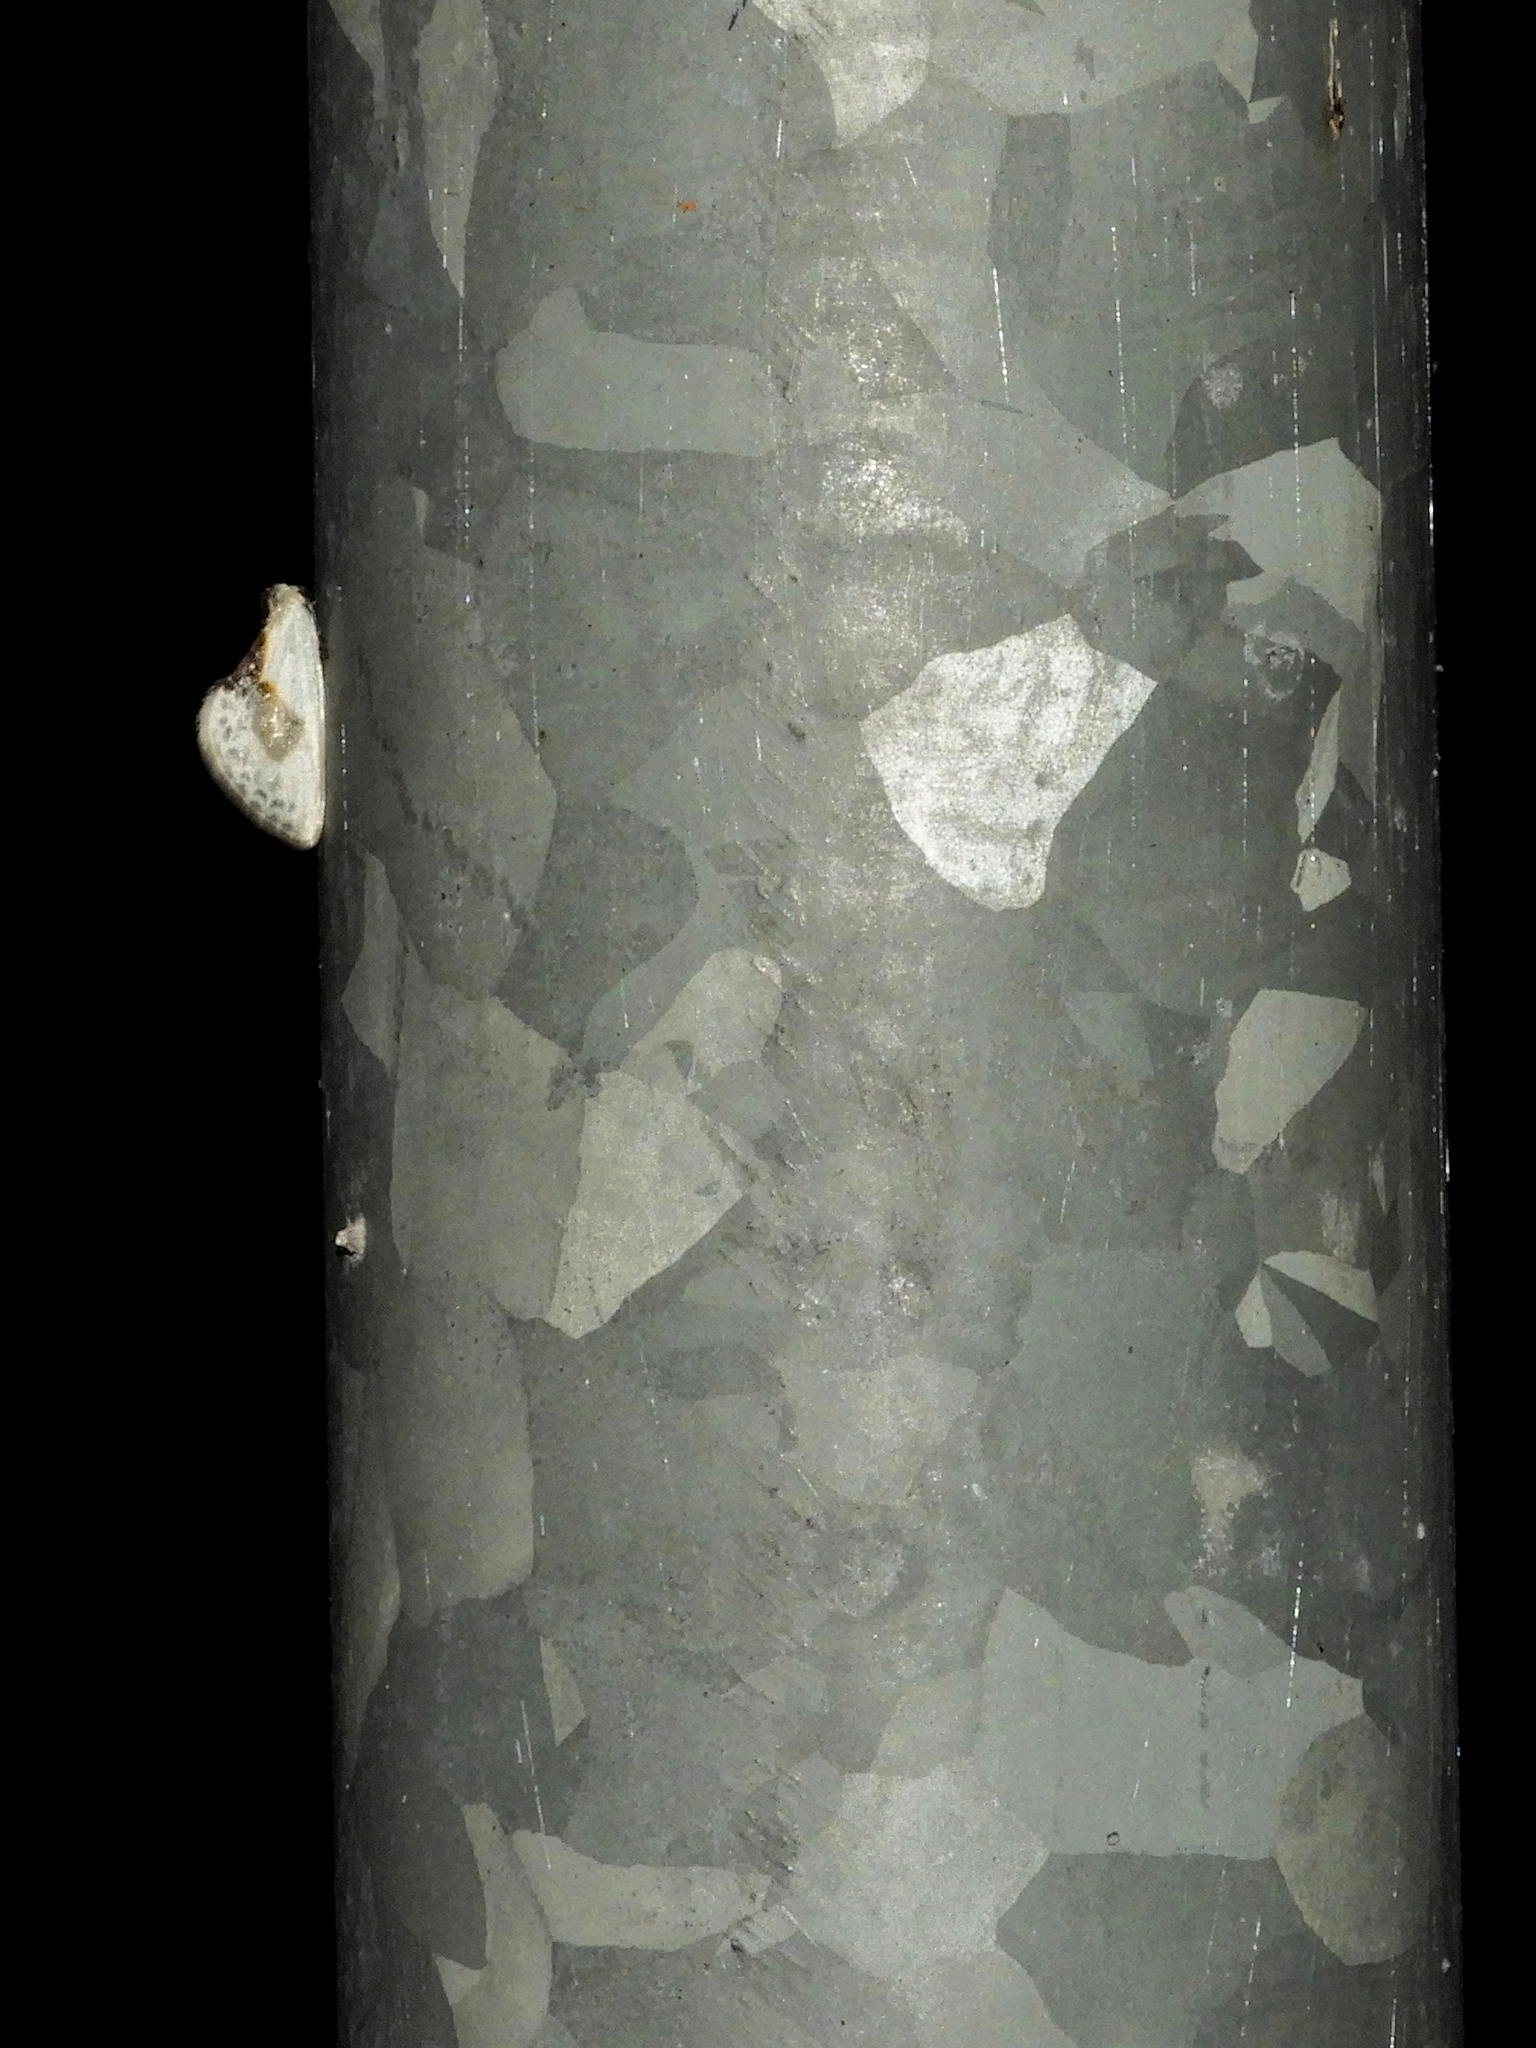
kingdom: Animalia
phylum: Arthropoda
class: Insecta
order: Lepidoptera
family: Drepanidae
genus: Cilix
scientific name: Cilix glaucata
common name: Chinese character
